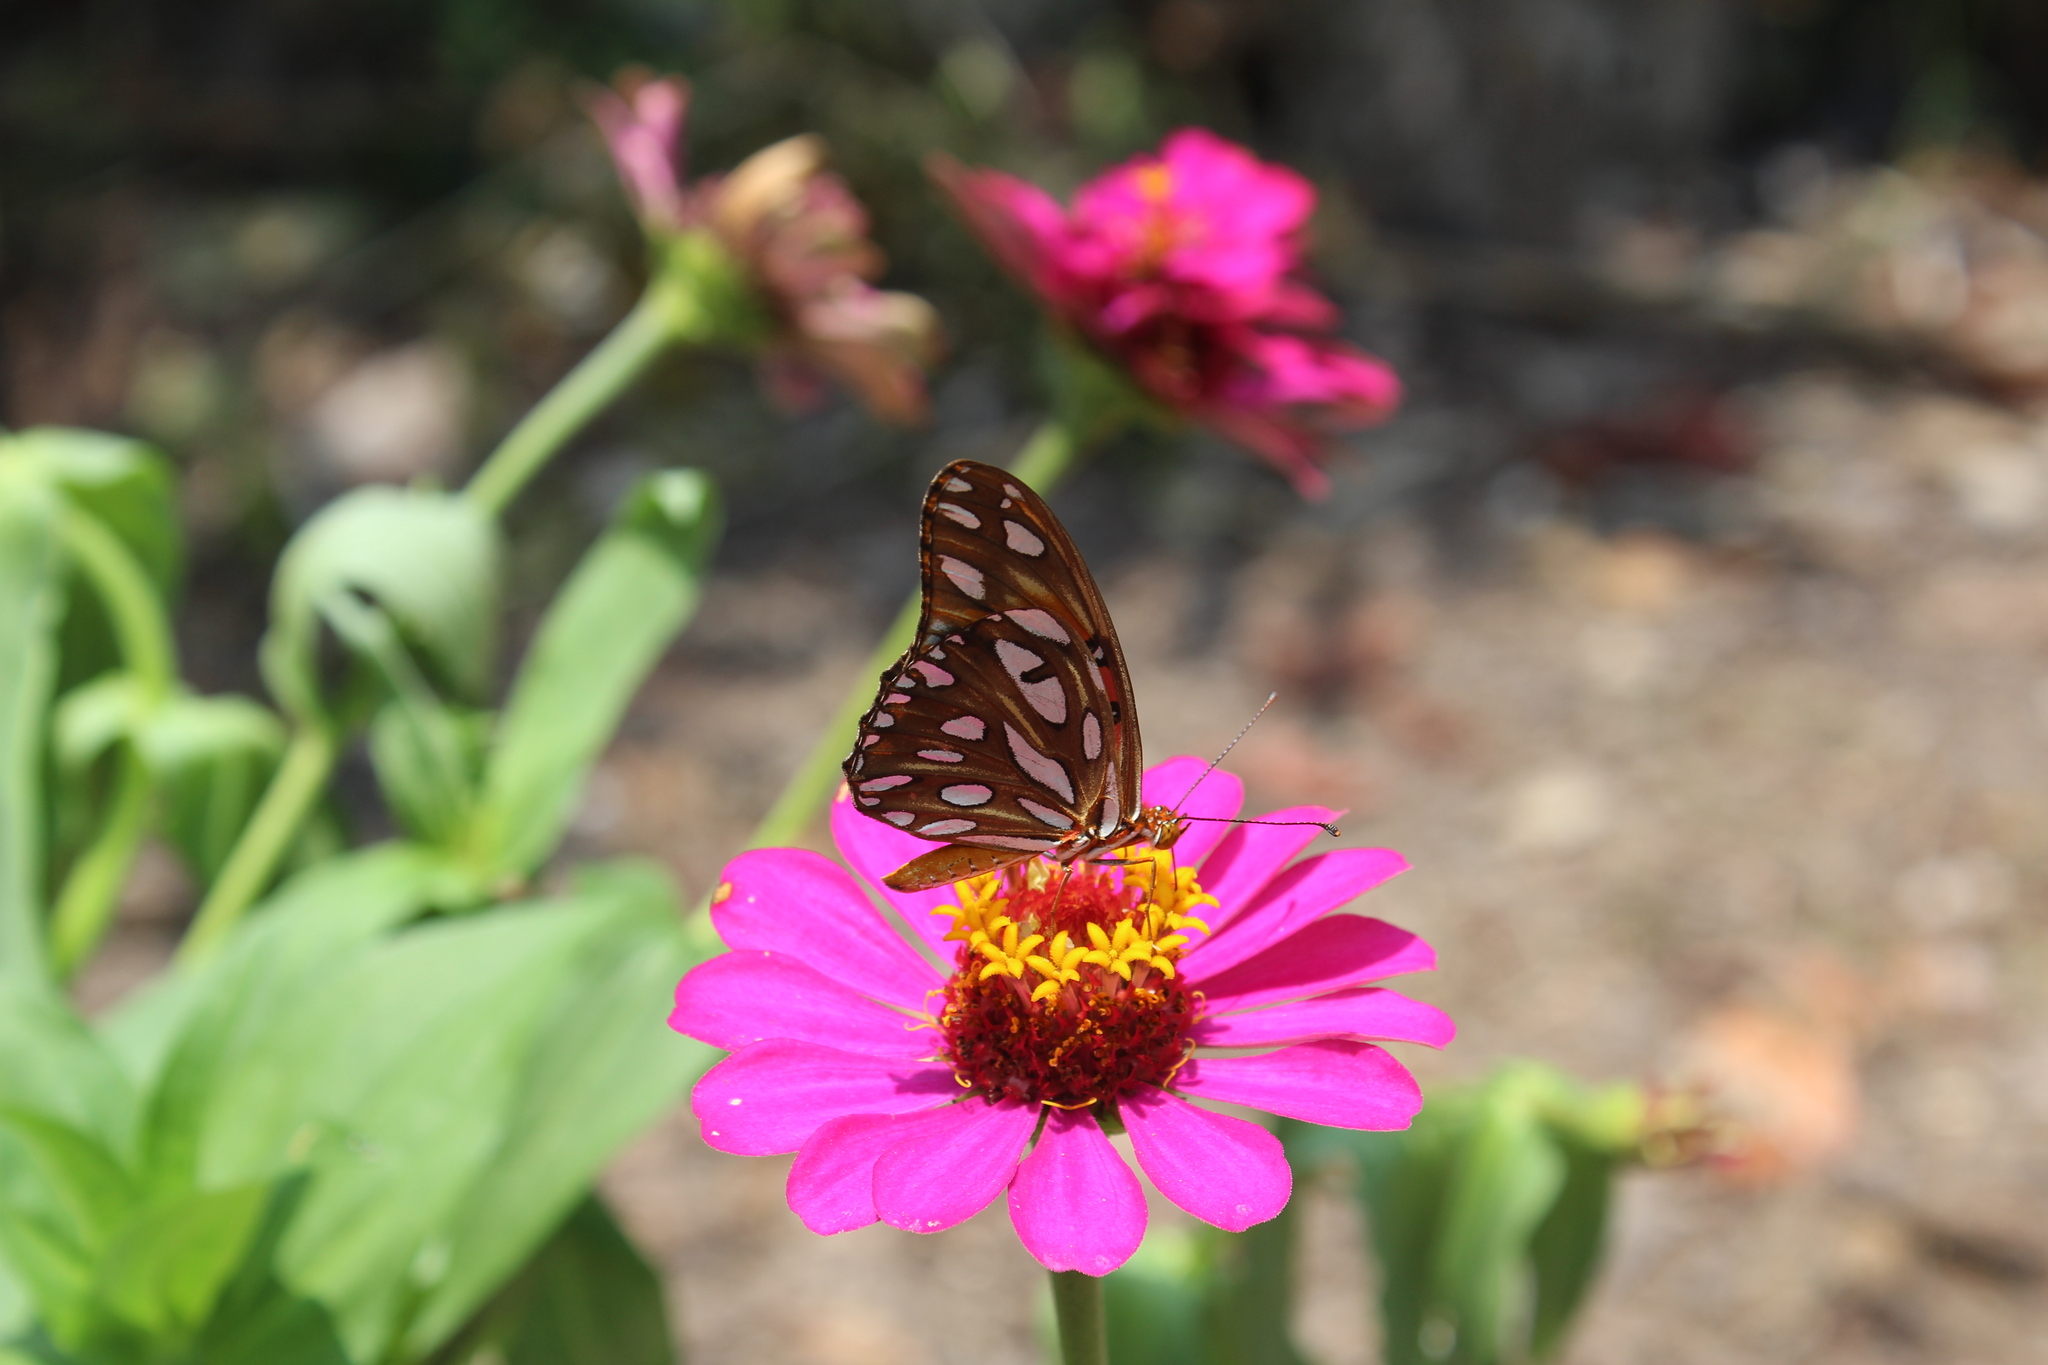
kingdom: Animalia
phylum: Arthropoda
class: Insecta
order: Lepidoptera
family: Nymphalidae
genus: Dione
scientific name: Dione vanillae
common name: Gulf fritillary
